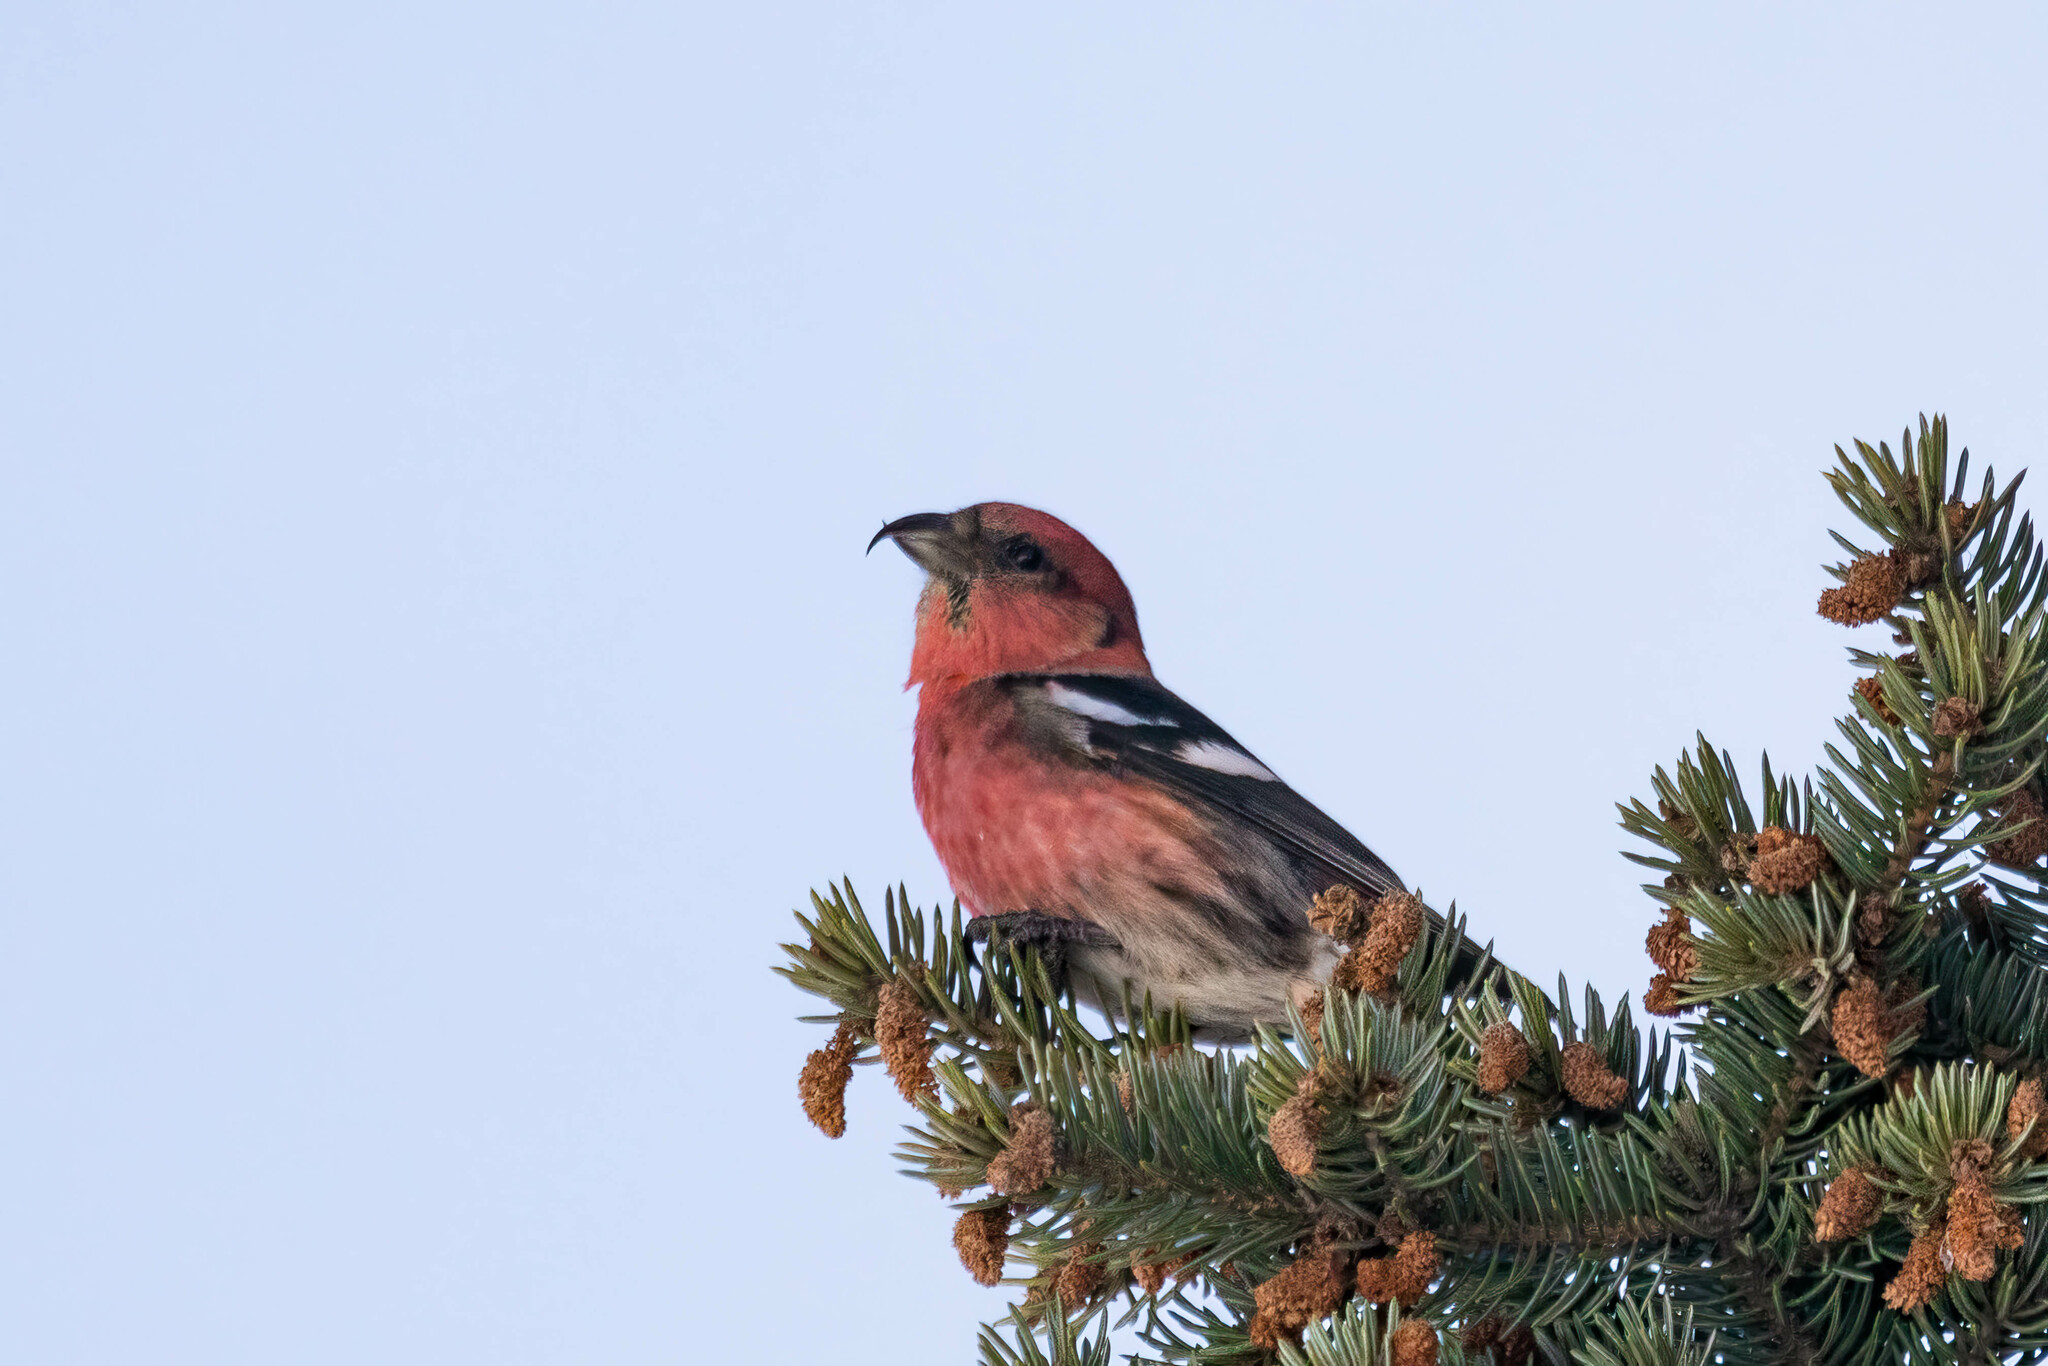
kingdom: Animalia
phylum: Chordata
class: Aves
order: Passeriformes
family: Fringillidae
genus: Loxia
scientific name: Loxia leucoptera
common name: Two-barred crossbill
